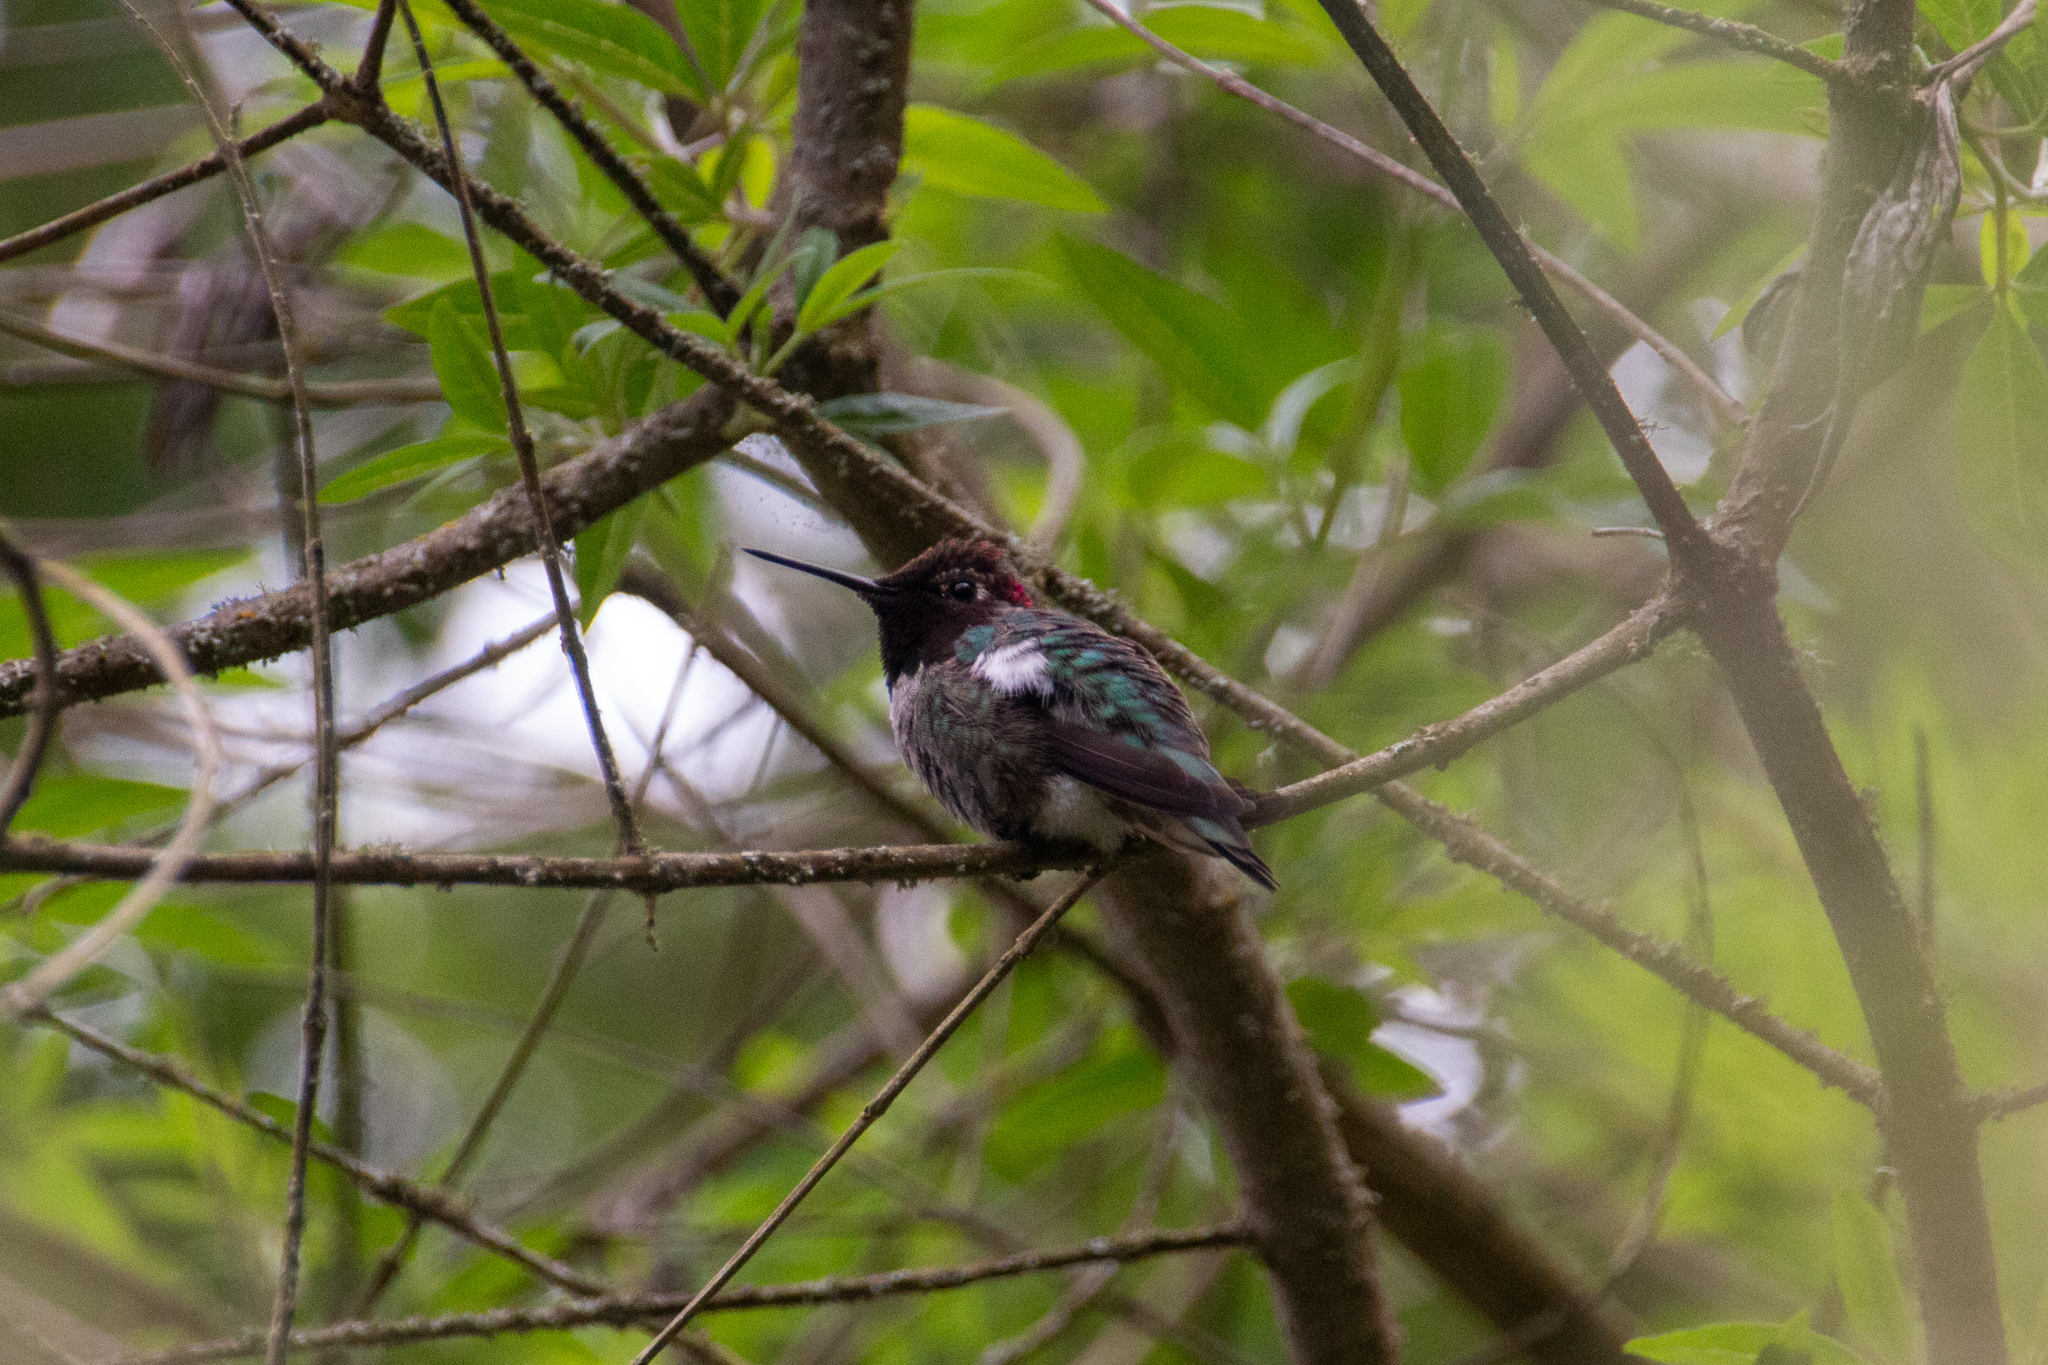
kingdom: Animalia
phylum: Chordata
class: Aves
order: Apodiformes
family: Trochilidae
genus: Calypte
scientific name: Calypte anna
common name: Anna's hummingbird
